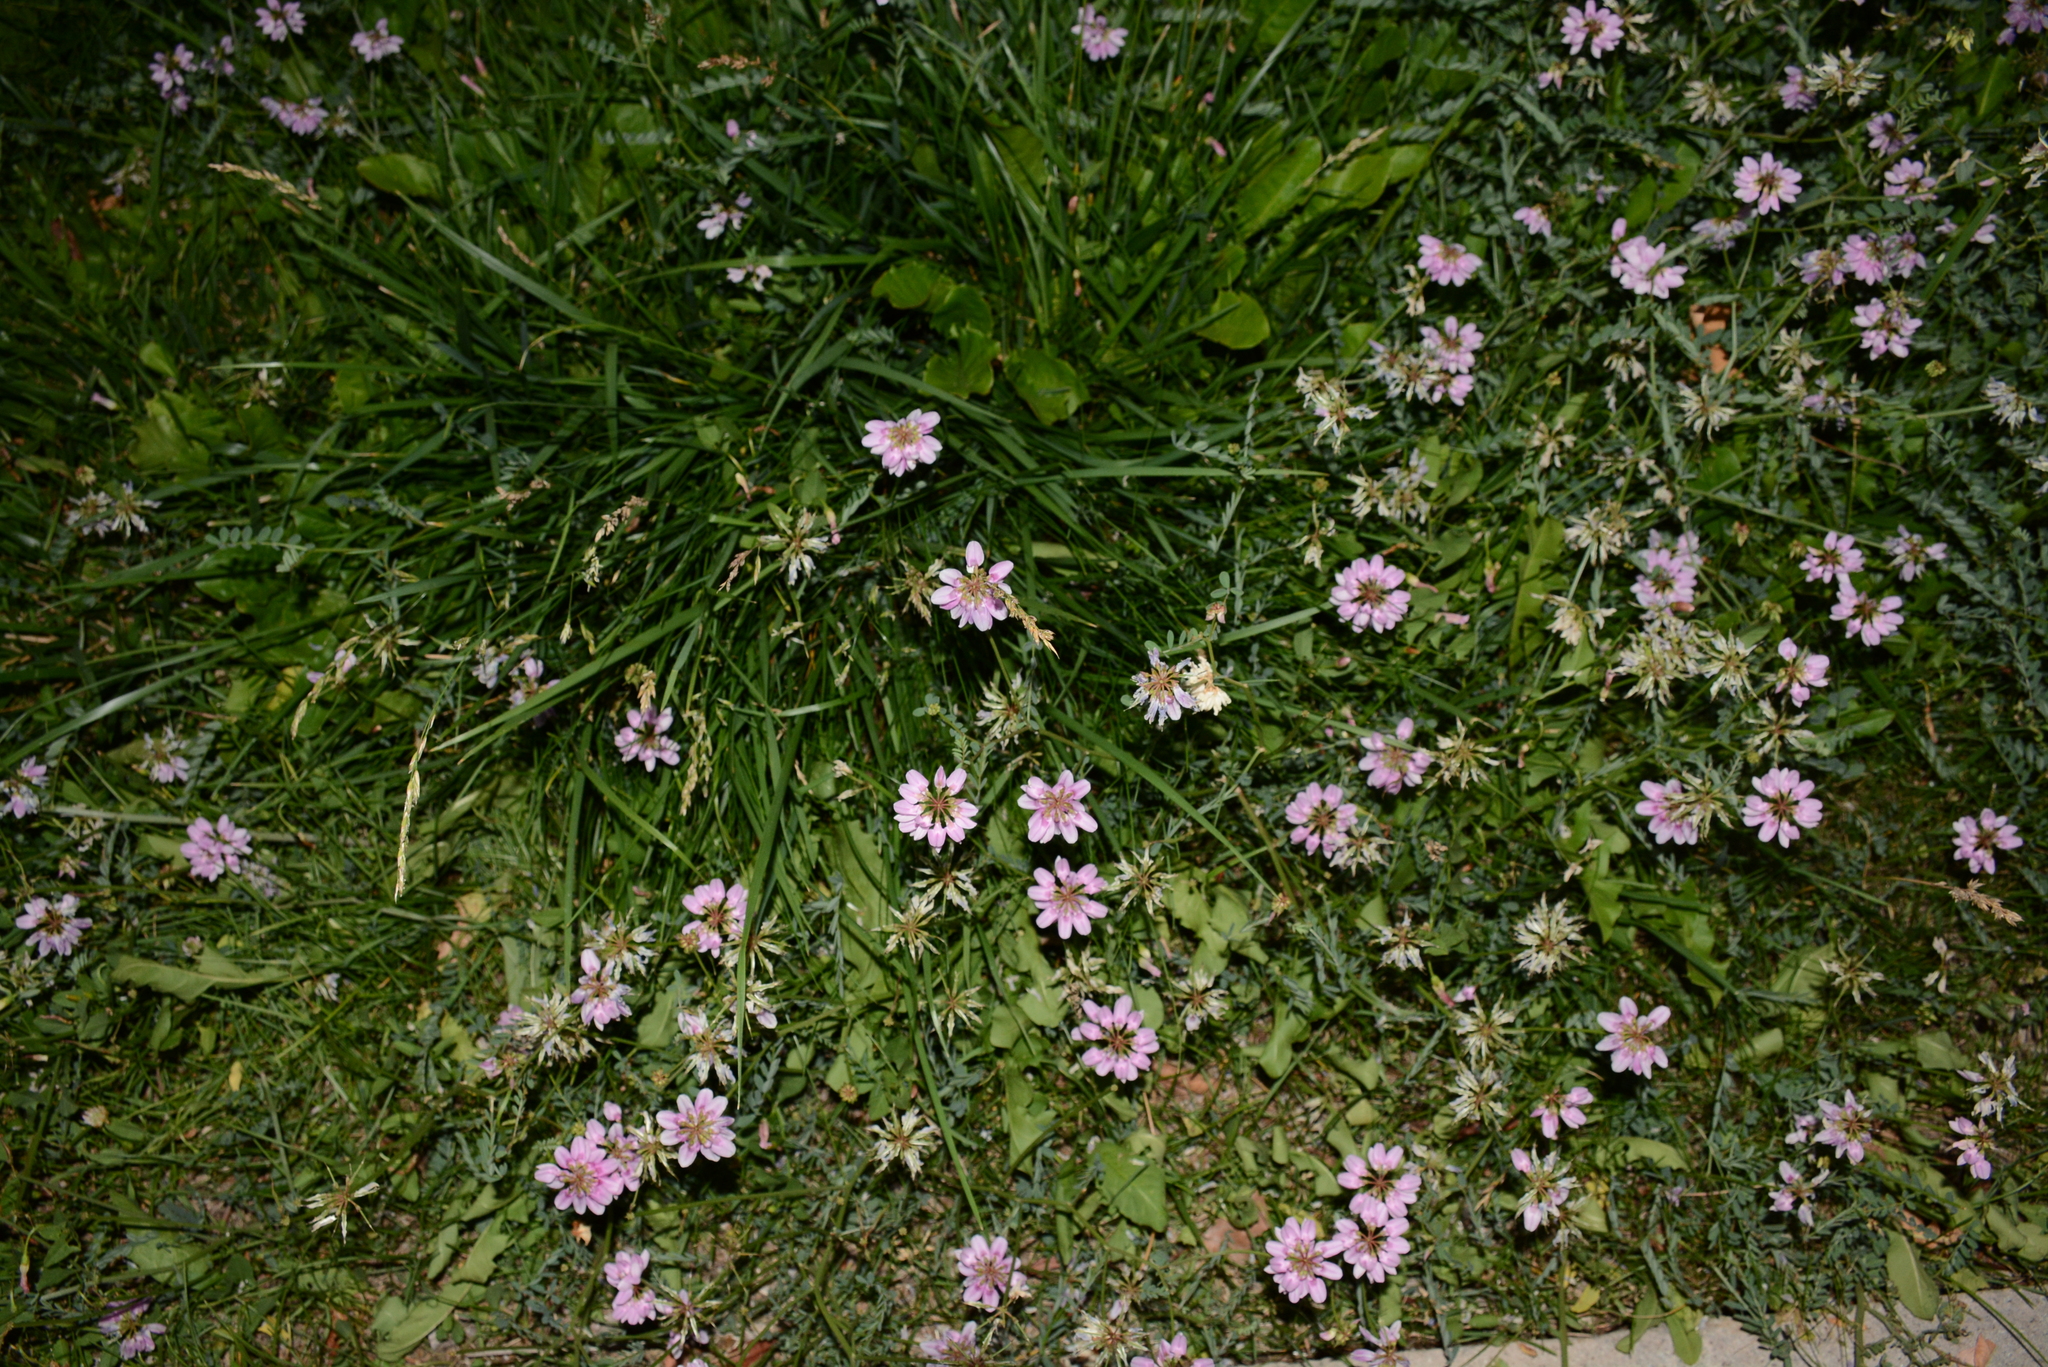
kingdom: Plantae
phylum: Tracheophyta
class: Magnoliopsida
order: Fabales
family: Fabaceae
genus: Coronilla
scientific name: Coronilla varia
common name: Crownvetch
